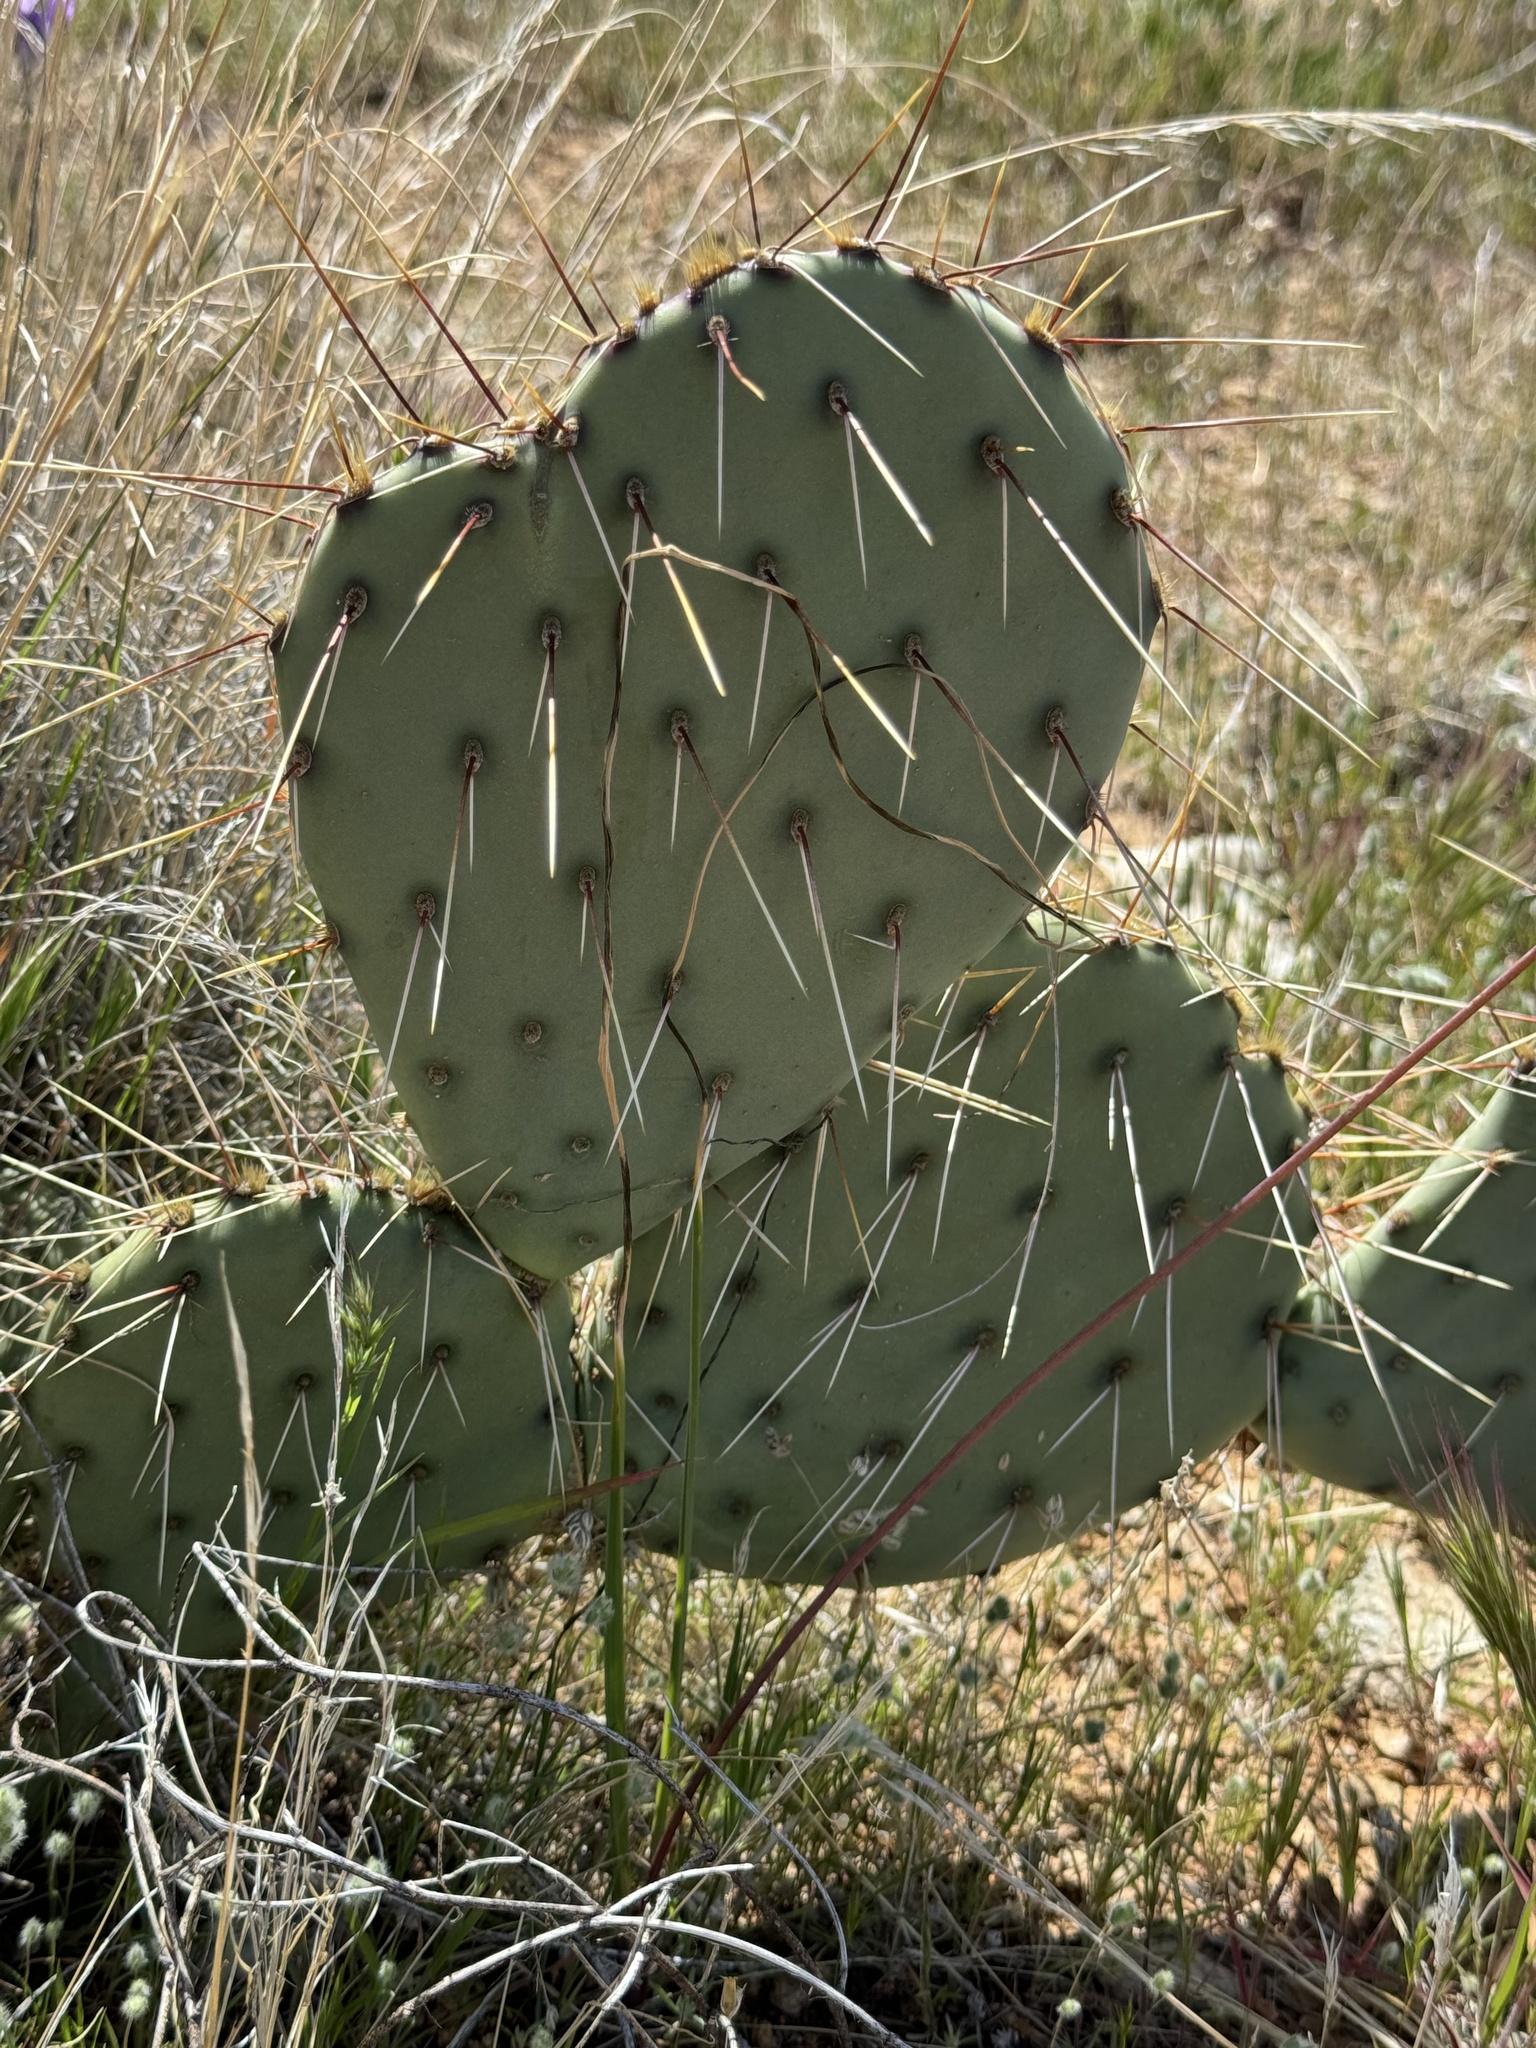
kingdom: Plantae
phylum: Tracheophyta
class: Magnoliopsida
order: Caryophyllales
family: Cactaceae
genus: Opuntia
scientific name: Opuntia phaeacantha
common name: New mexico prickly-pear
